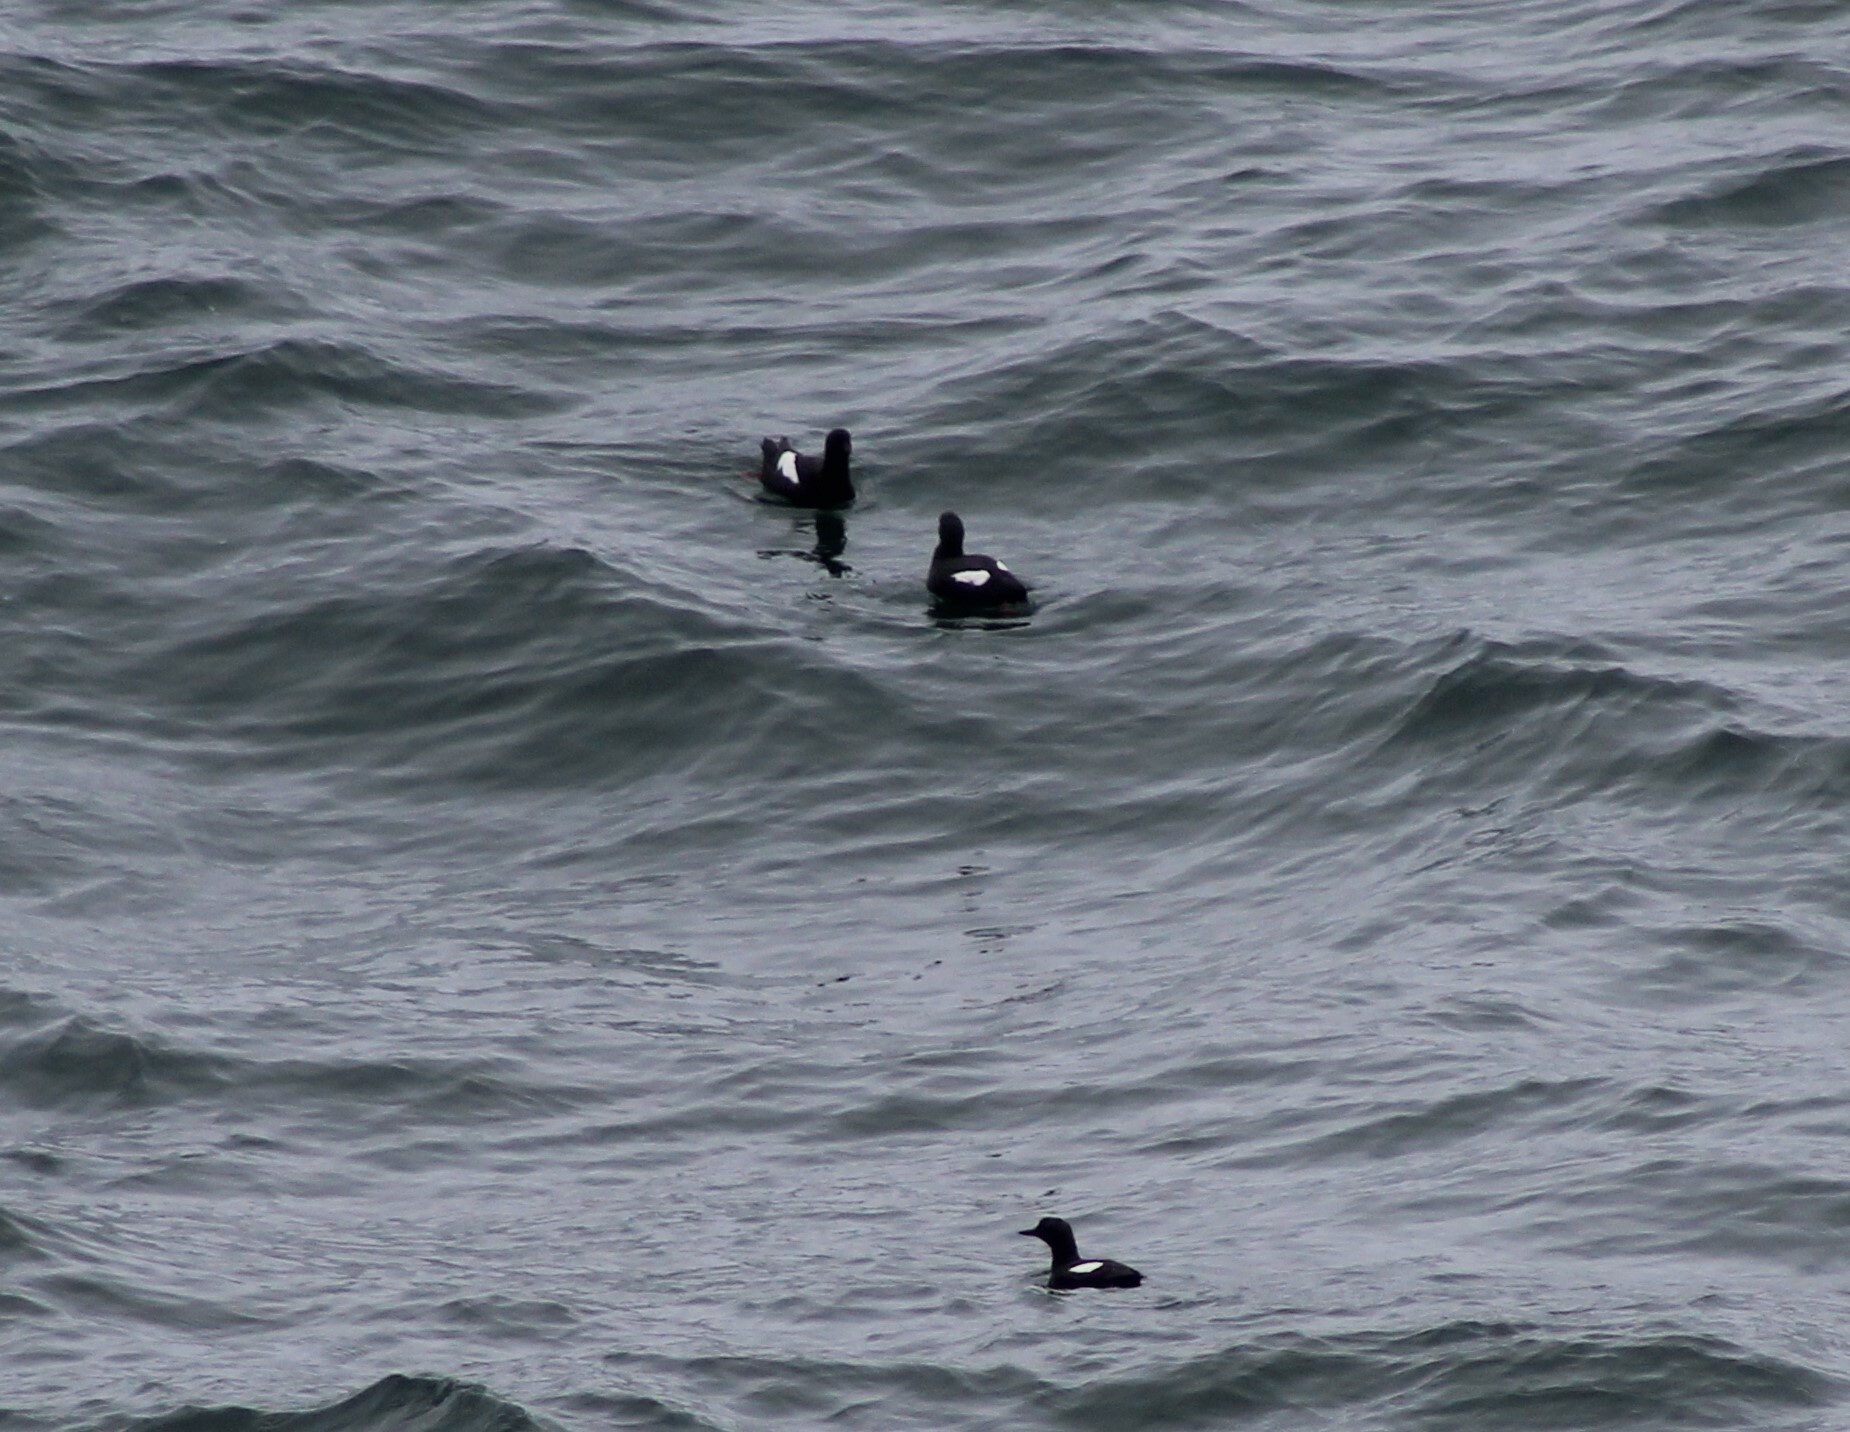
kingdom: Animalia
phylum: Chordata
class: Aves
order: Charadriiformes
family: Alcidae
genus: Cepphus
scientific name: Cepphus columba
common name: Pigeon guillemot
